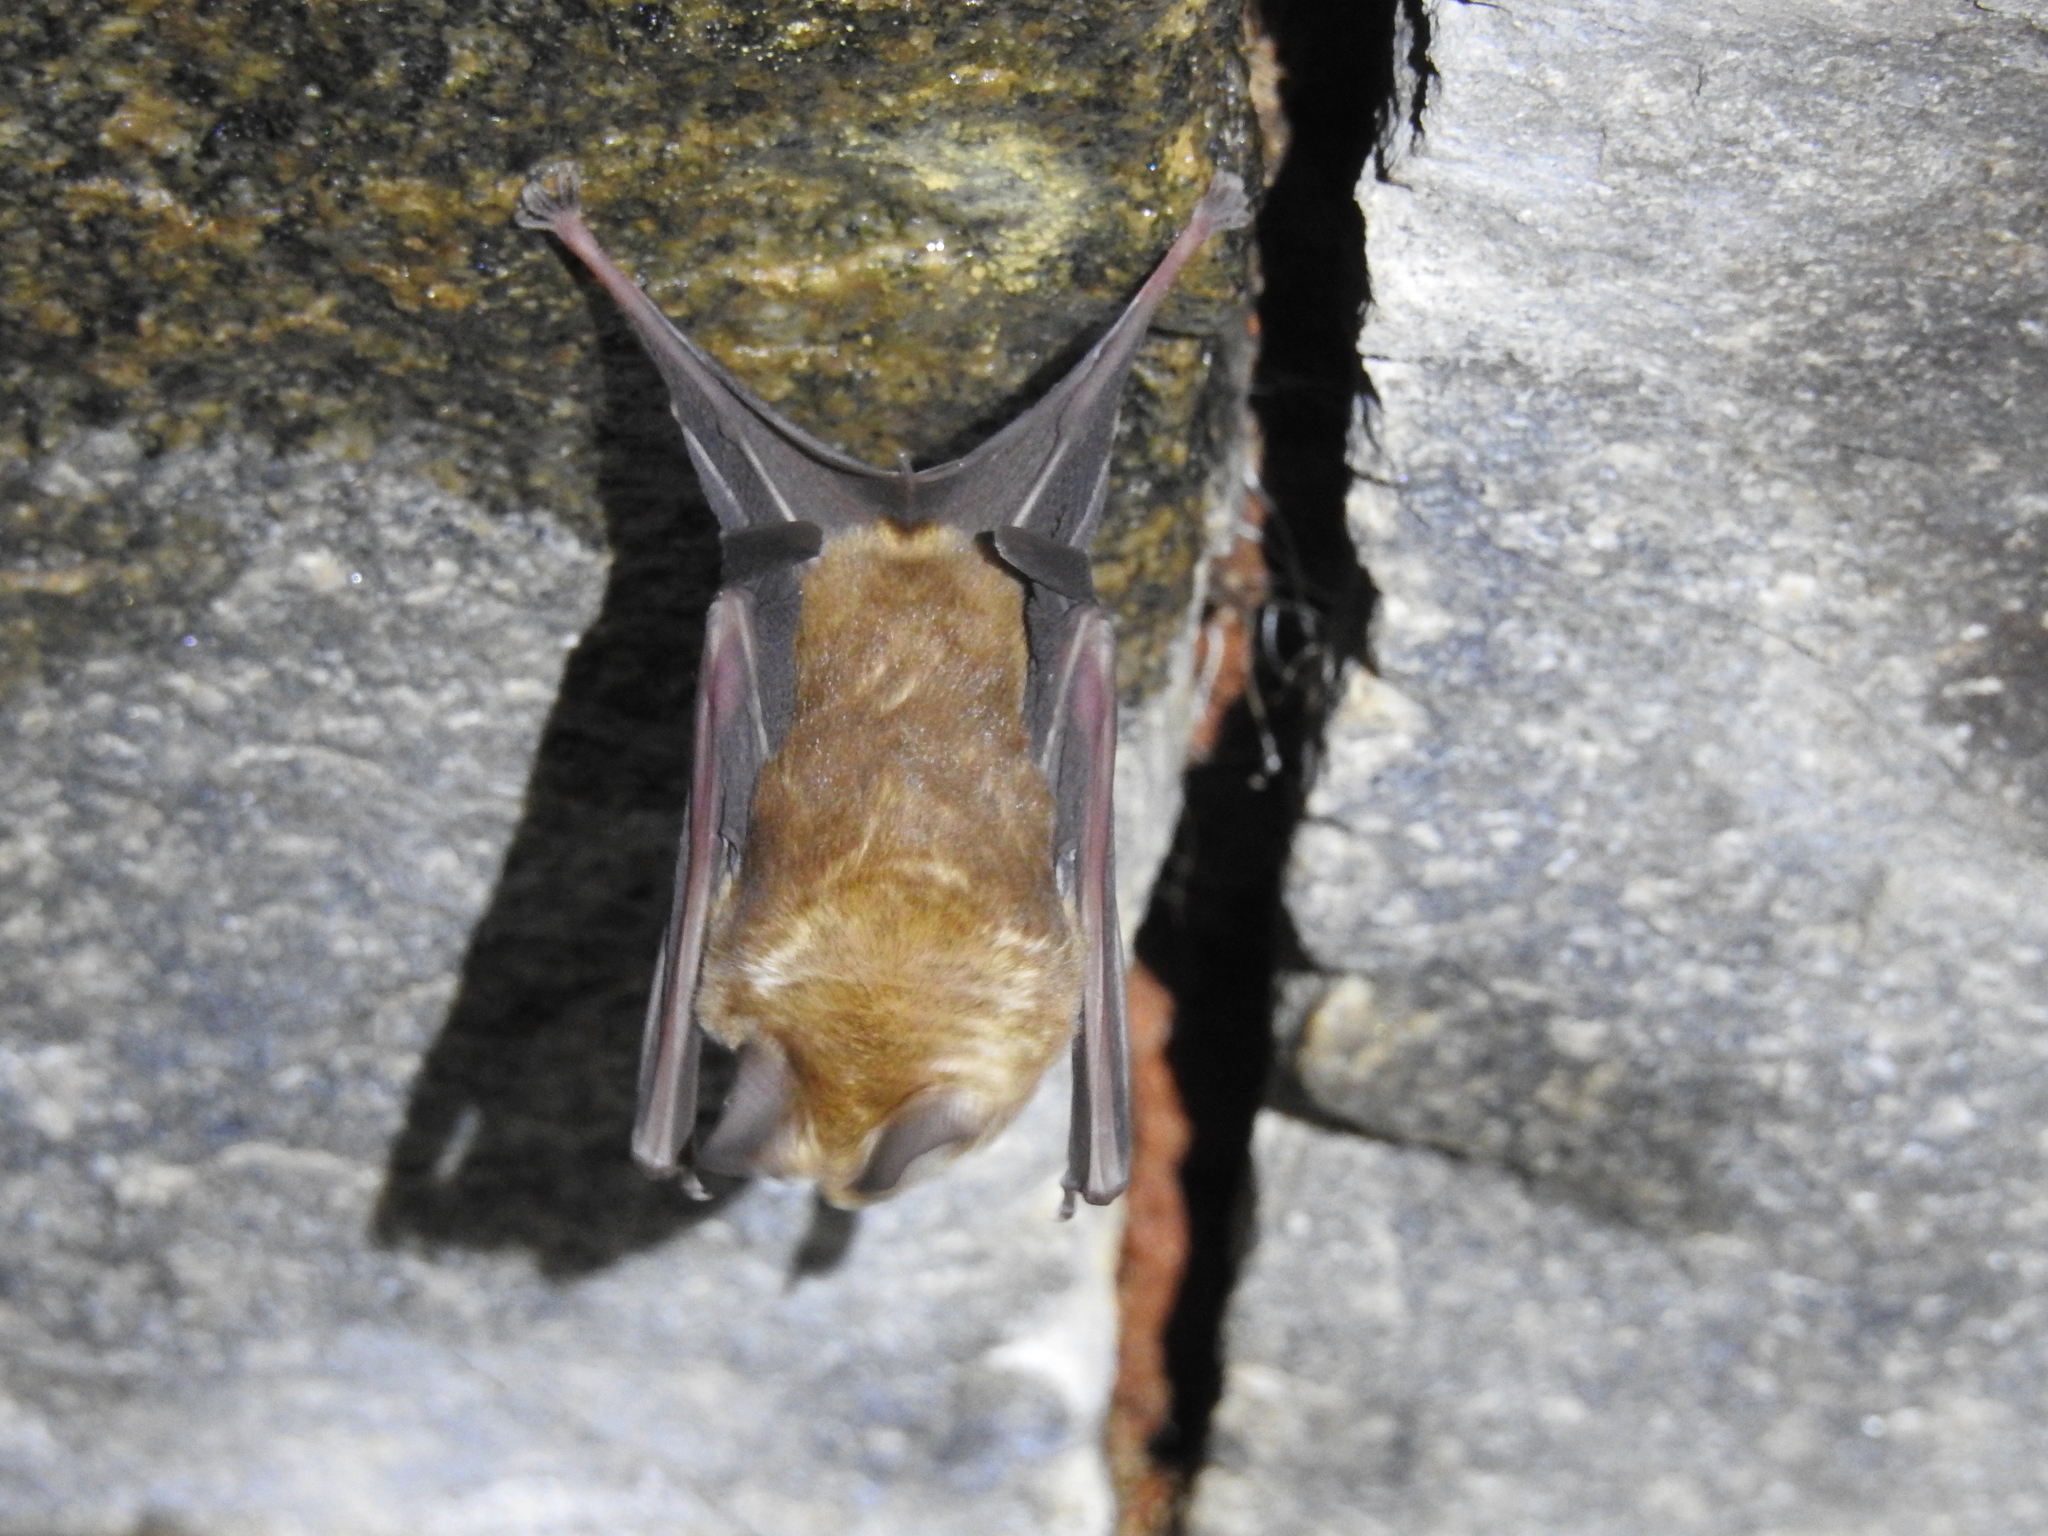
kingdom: Animalia
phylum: Chordata
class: Mammalia
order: Chiroptera
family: Hipposideridae
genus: Hipposideros
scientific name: Hipposideros speoris
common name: Schneider's roundleaf bat
